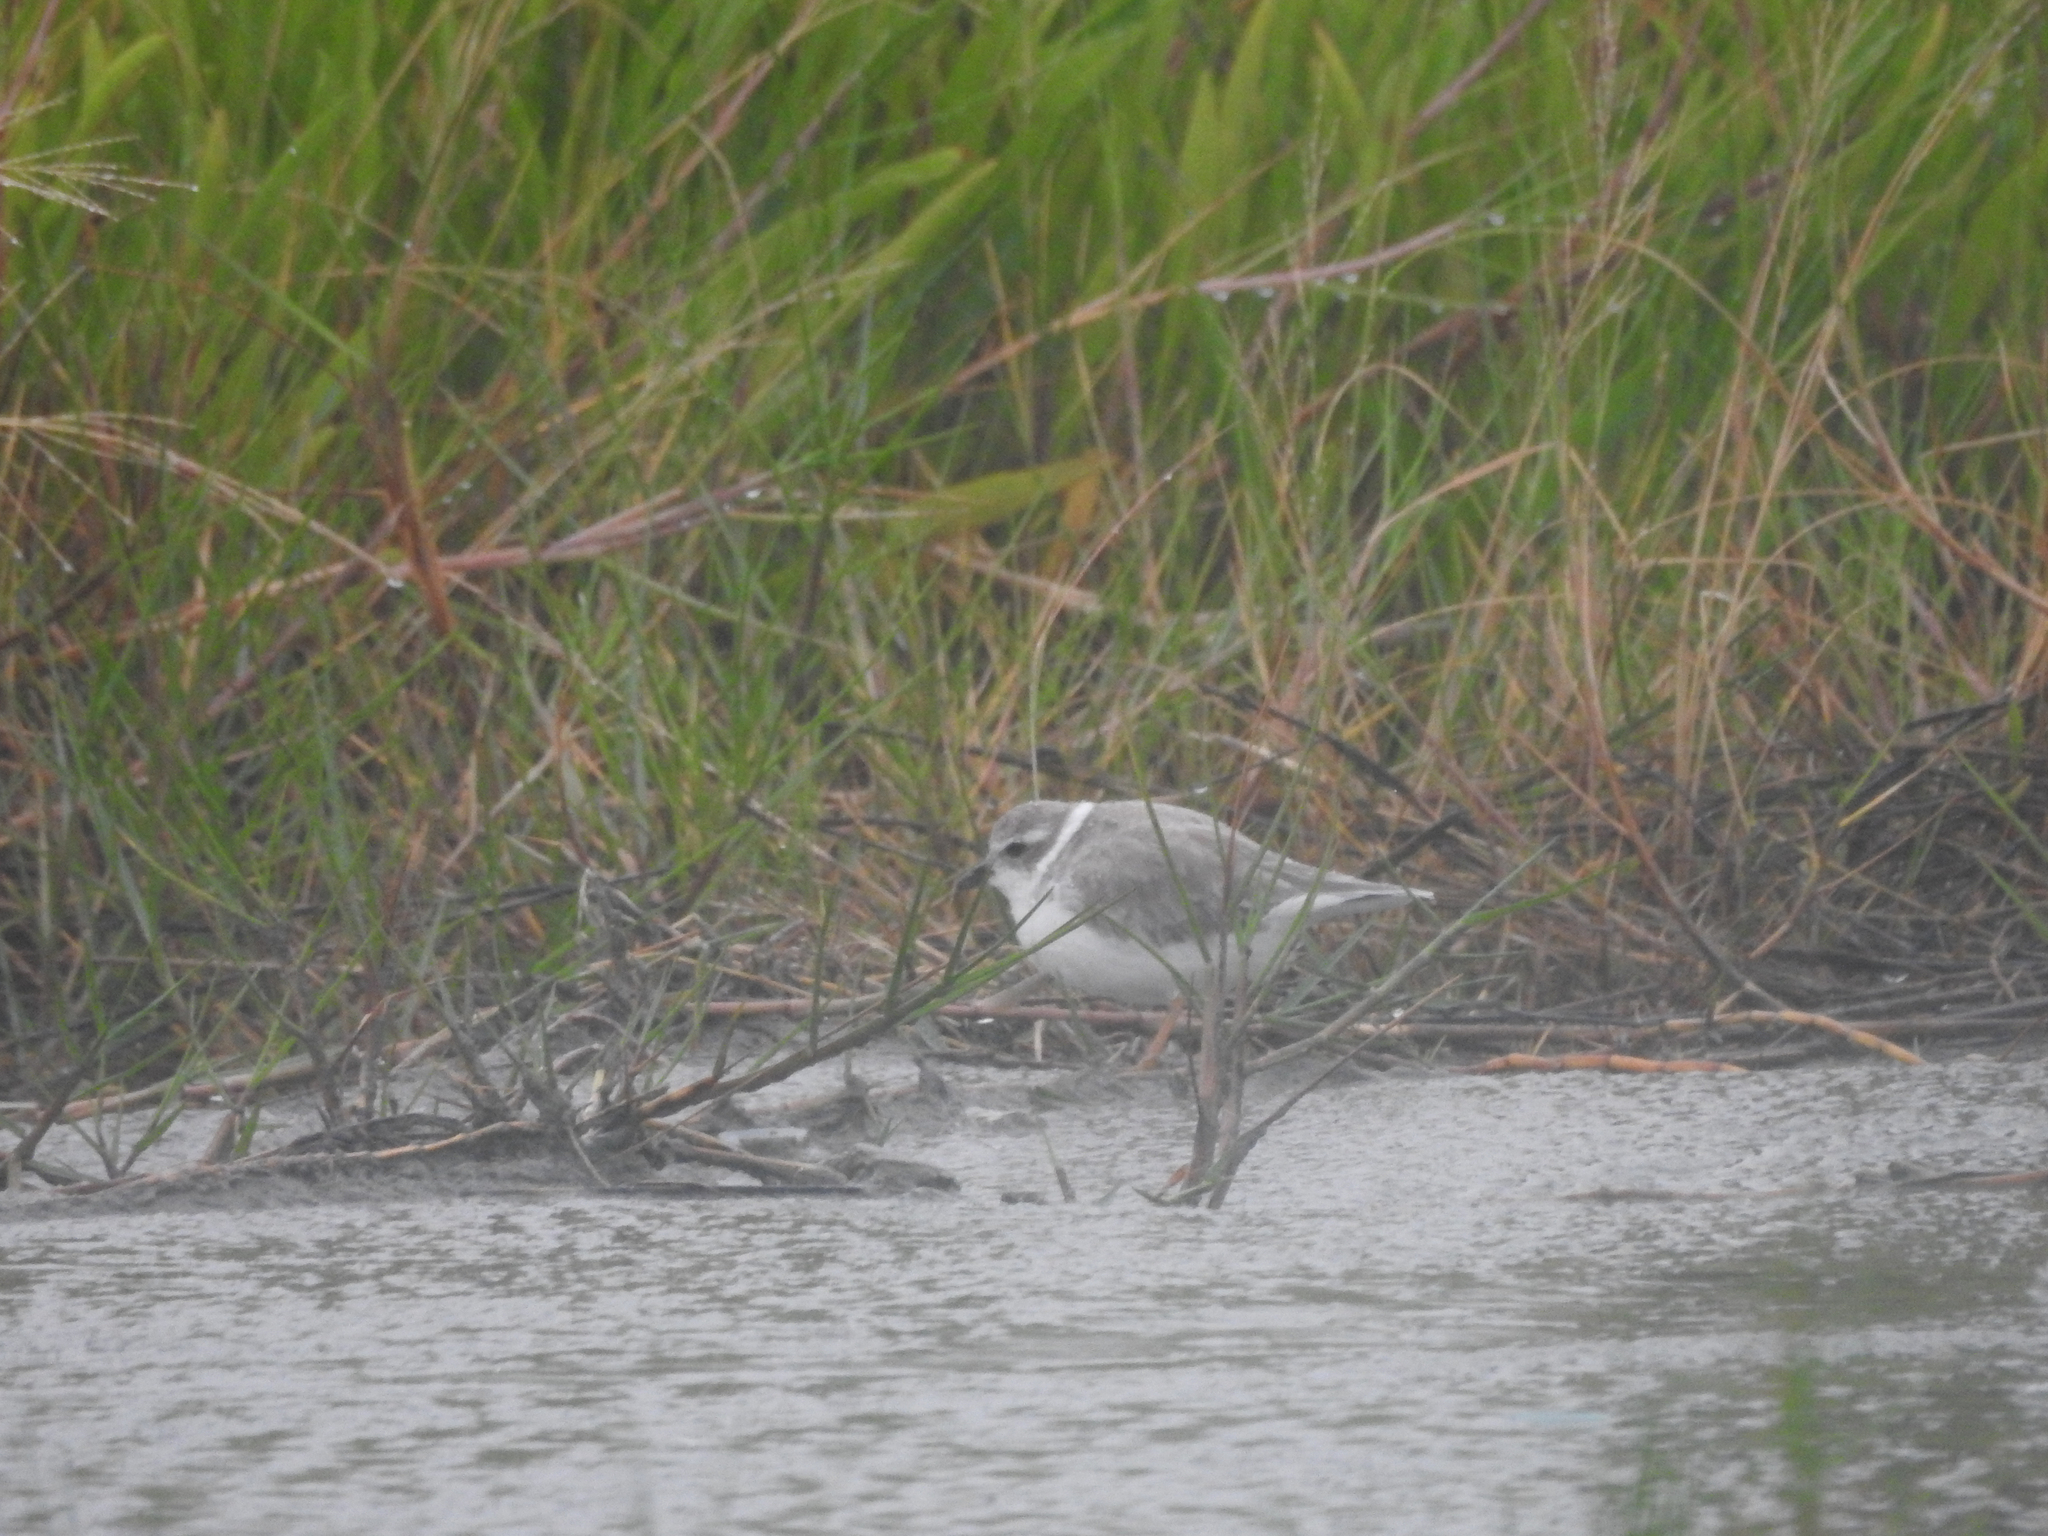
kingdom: Animalia
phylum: Chordata
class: Aves
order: Charadriiformes
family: Charadriidae
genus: Charadrius
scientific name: Charadrius melodus
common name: Piping plover
